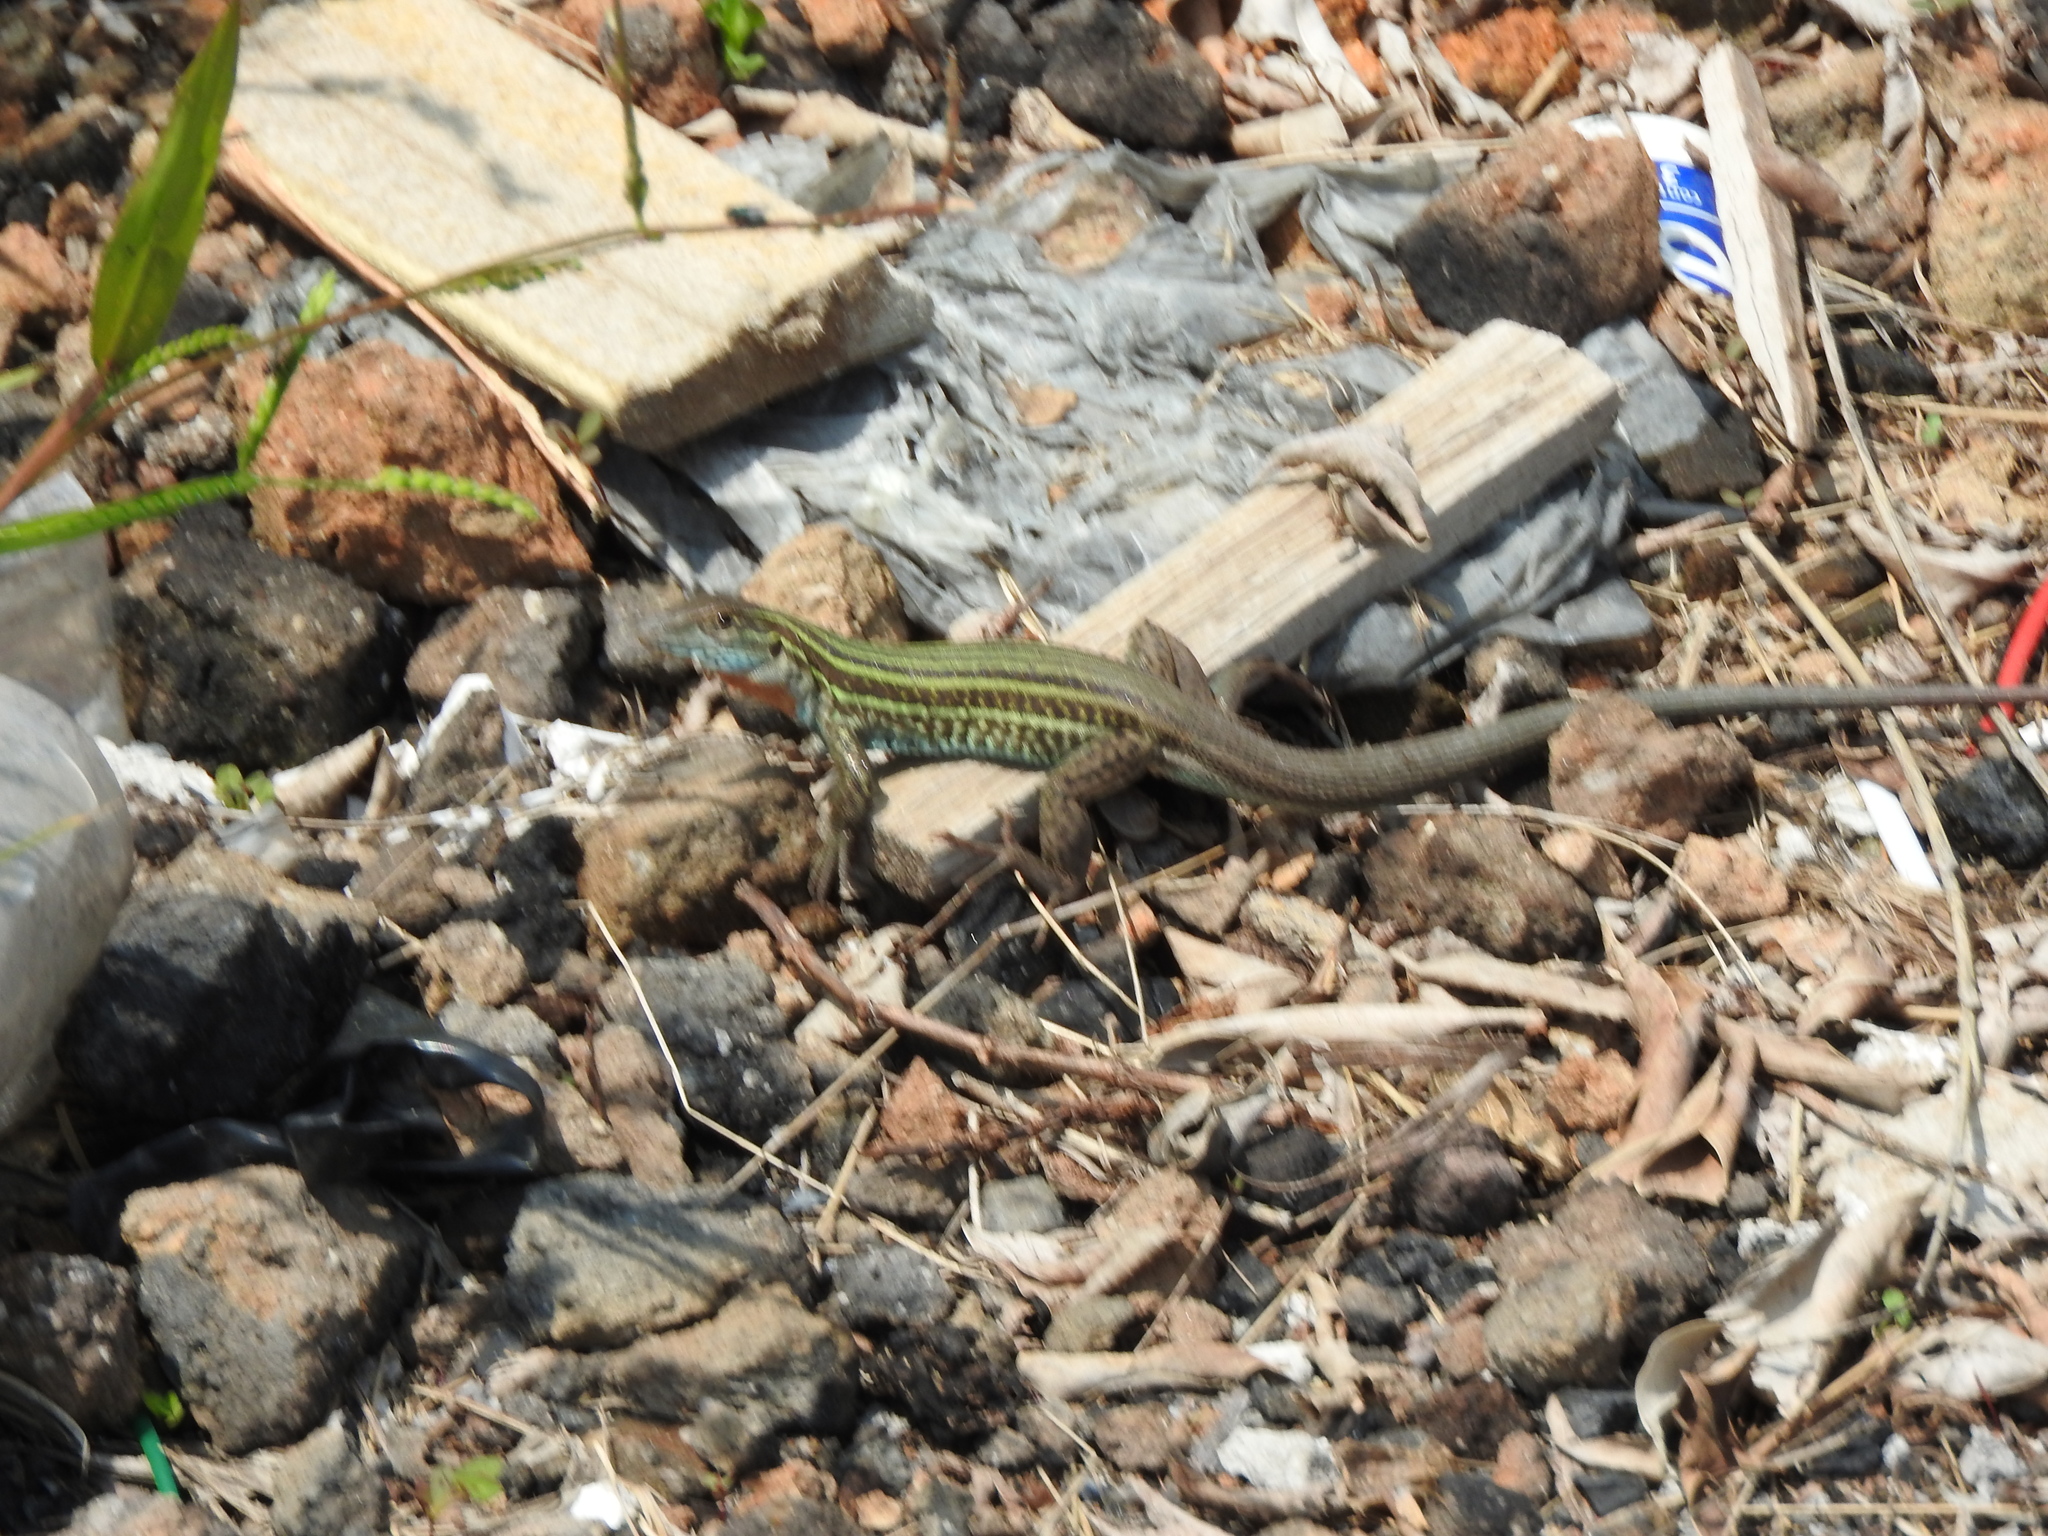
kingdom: Animalia
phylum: Chordata
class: Squamata
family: Teiidae
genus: Aspidoscelis
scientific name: Aspidoscelis gularis
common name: Eastern spotted whiptail
